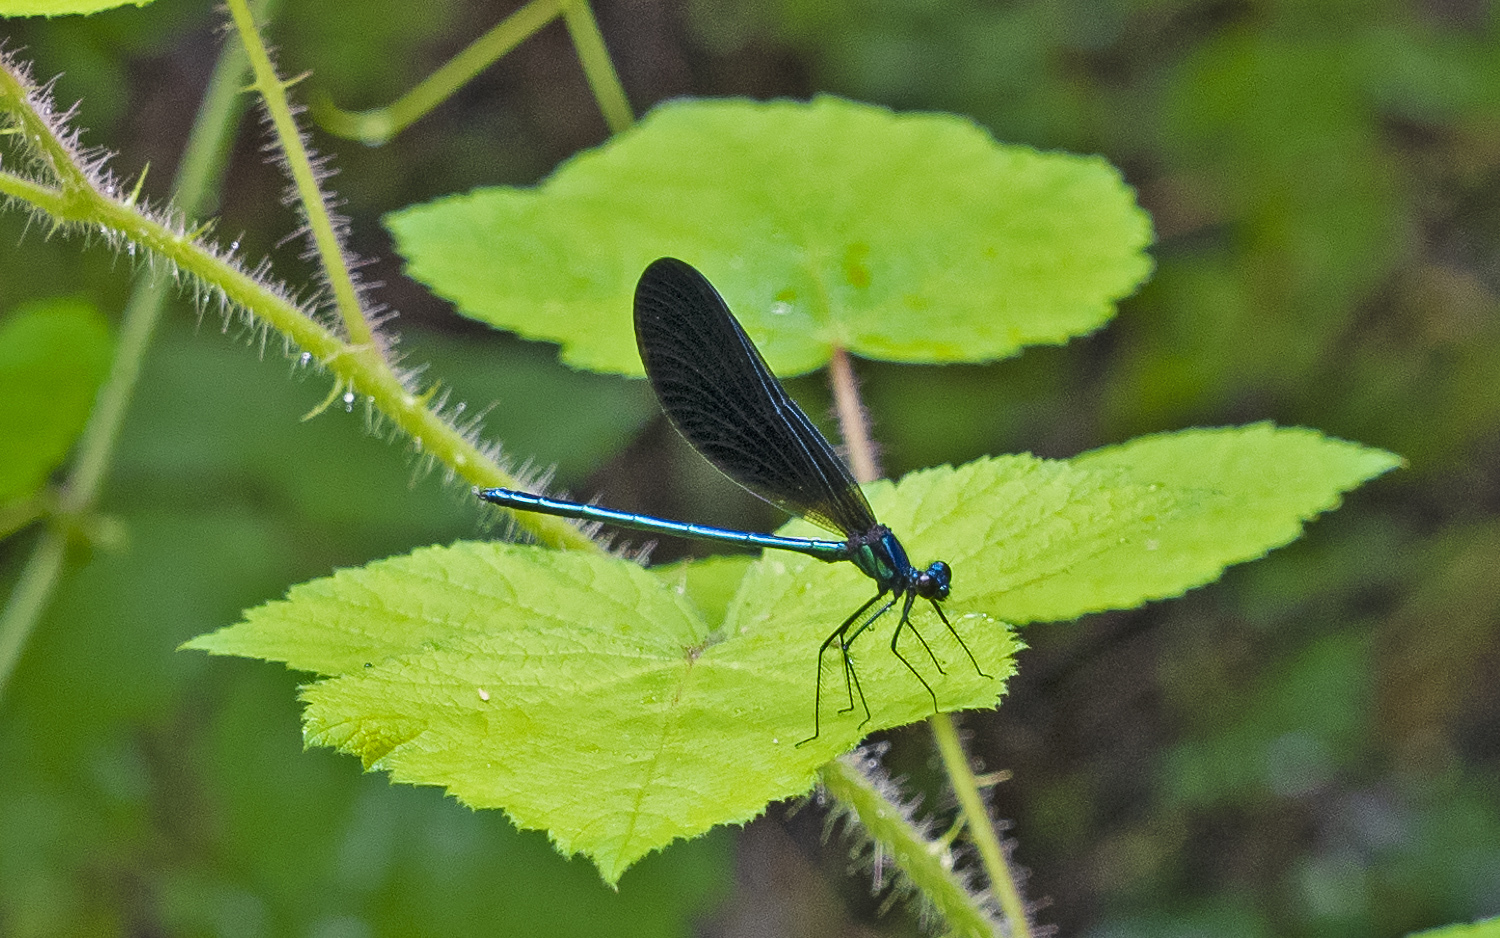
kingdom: Animalia
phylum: Arthropoda
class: Insecta
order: Odonata
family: Calopterygidae
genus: Calopteryx
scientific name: Calopteryx maculata
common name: Ebony jewelwing
